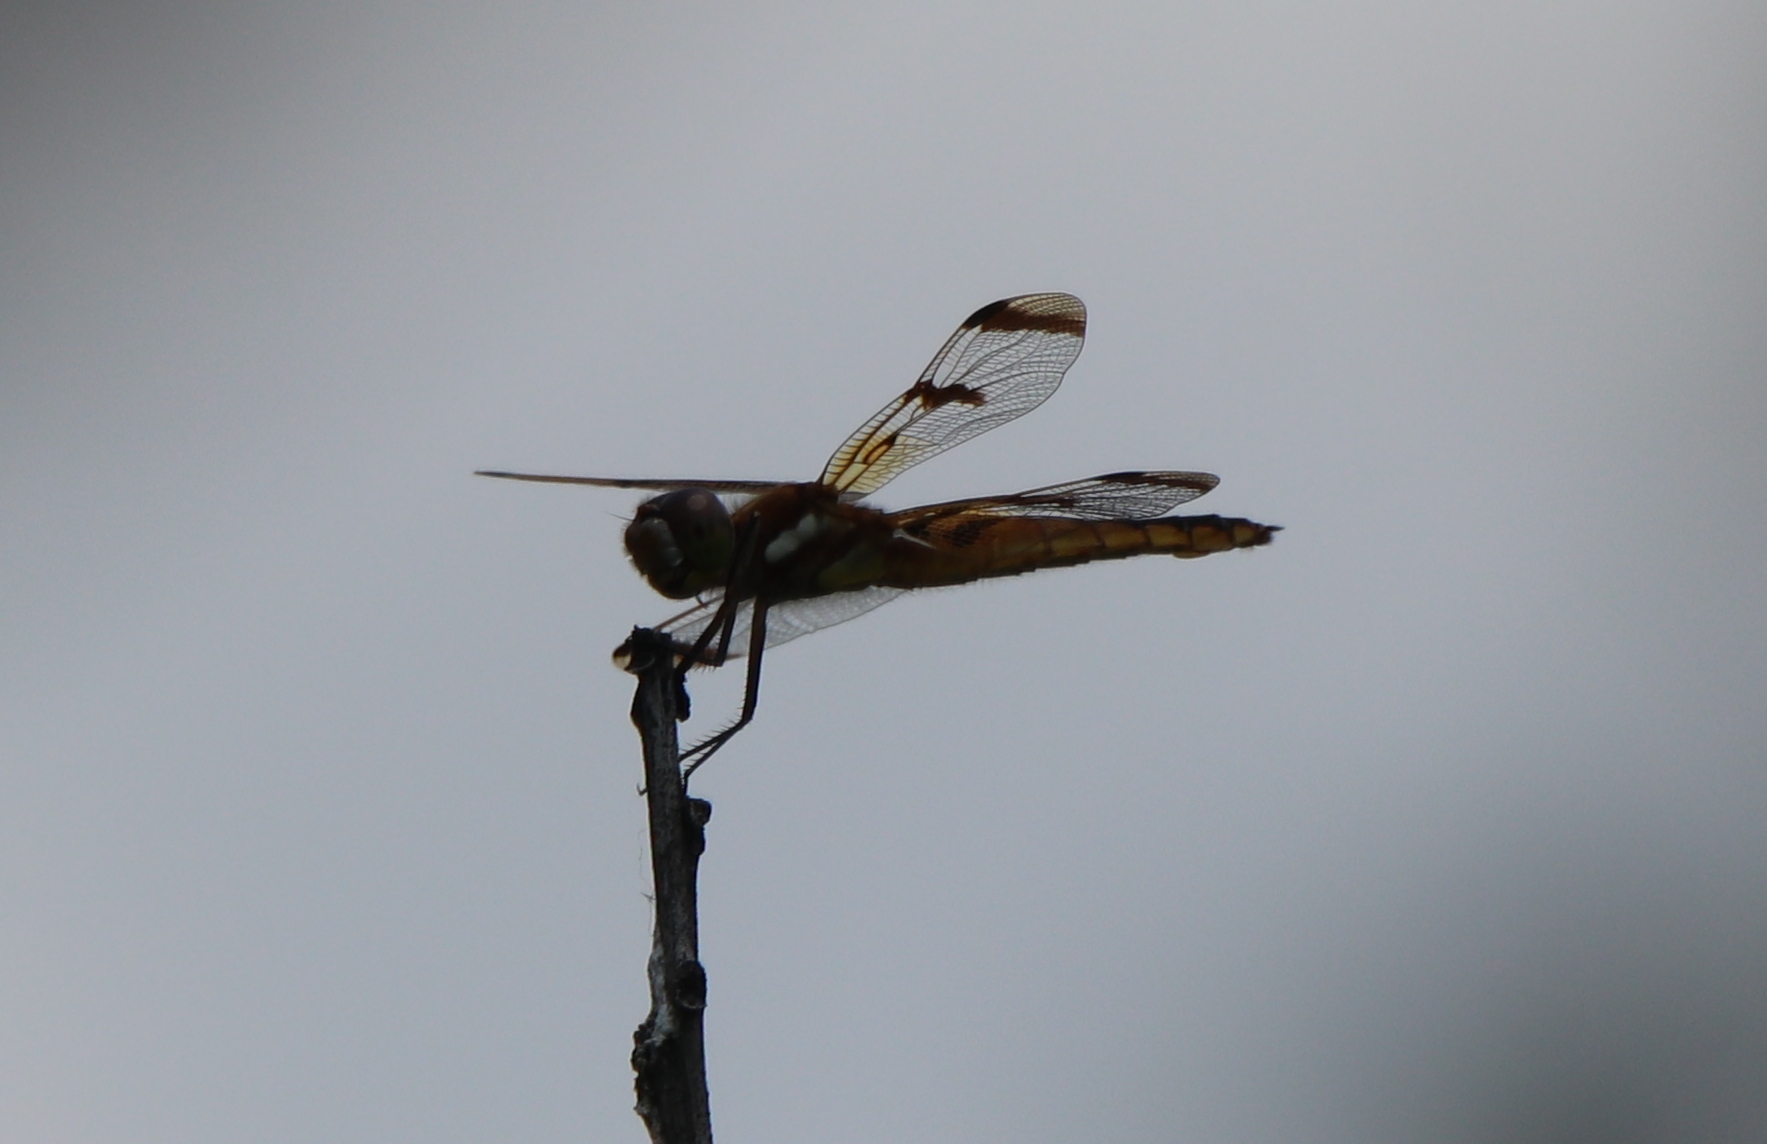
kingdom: Animalia
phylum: Arthropoda
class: Insecta
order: Odonata
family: Libellulidae
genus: Libellula
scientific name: Libellula semifasciata
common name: Painted skimmer
